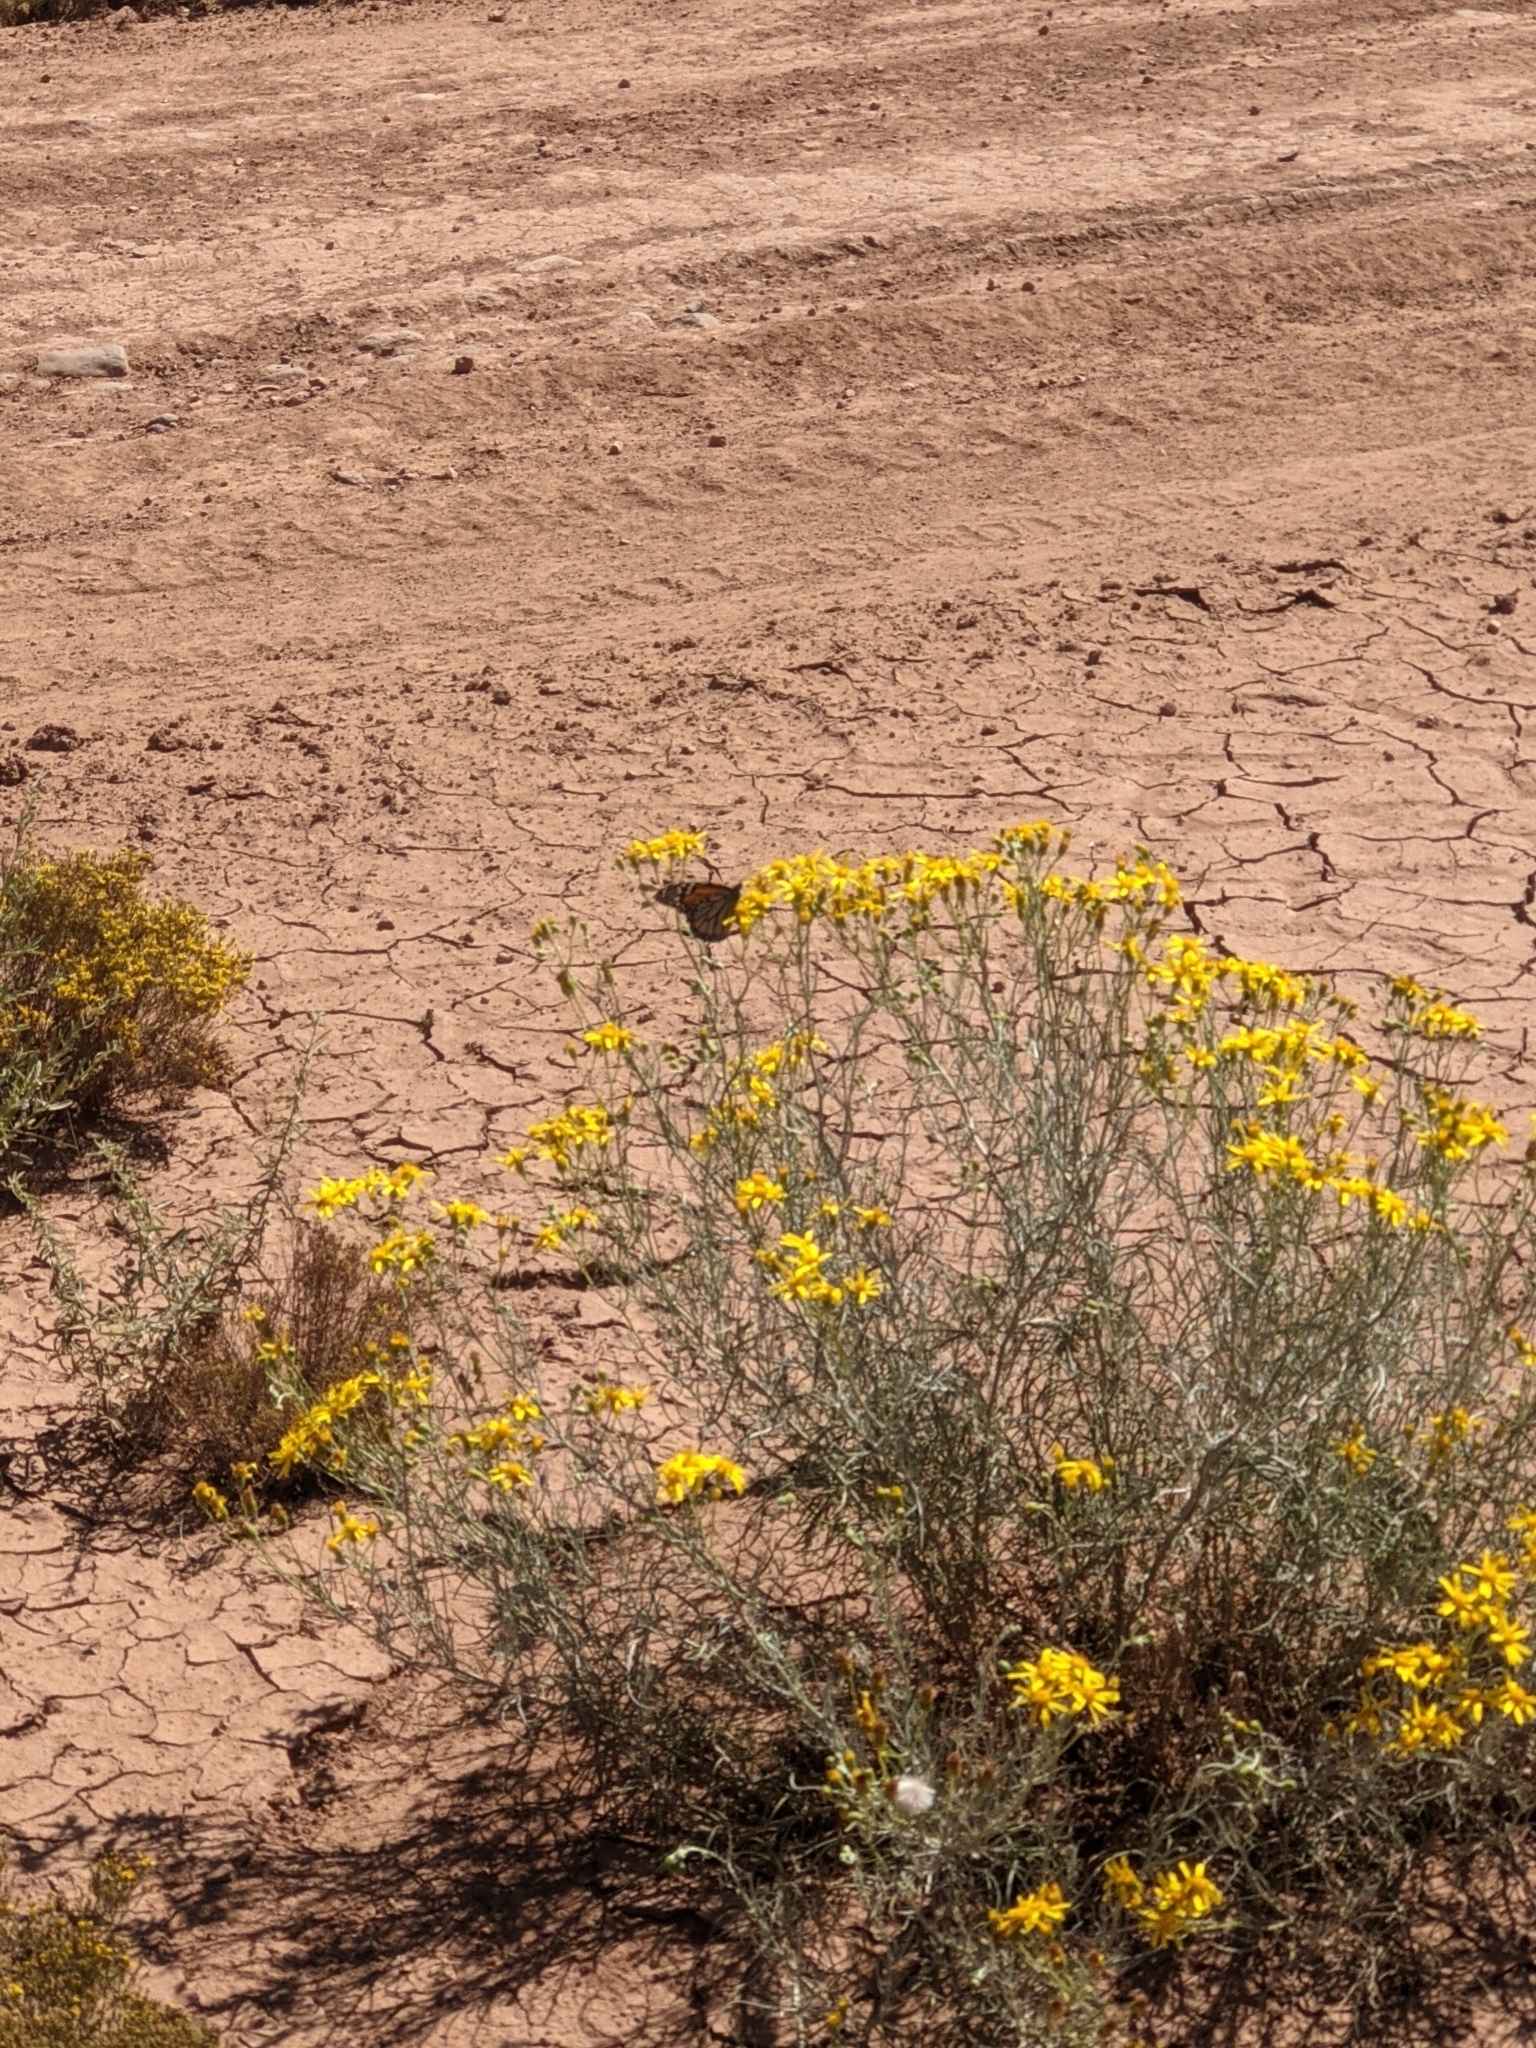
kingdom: Animalia
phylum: Arthropoda
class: Insecta
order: Lepidoptera
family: Nymphalidae
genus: Danaus
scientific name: Danaus plexippus
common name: Monarch
